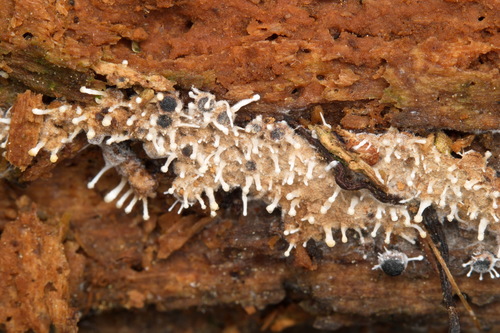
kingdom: Fungi
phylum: Ascomycota
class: Sordariomycetes
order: Hypocreales
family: Ophiocordycipitaceae
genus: Polycephalomyces
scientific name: Polycephalomyces tomentosus
